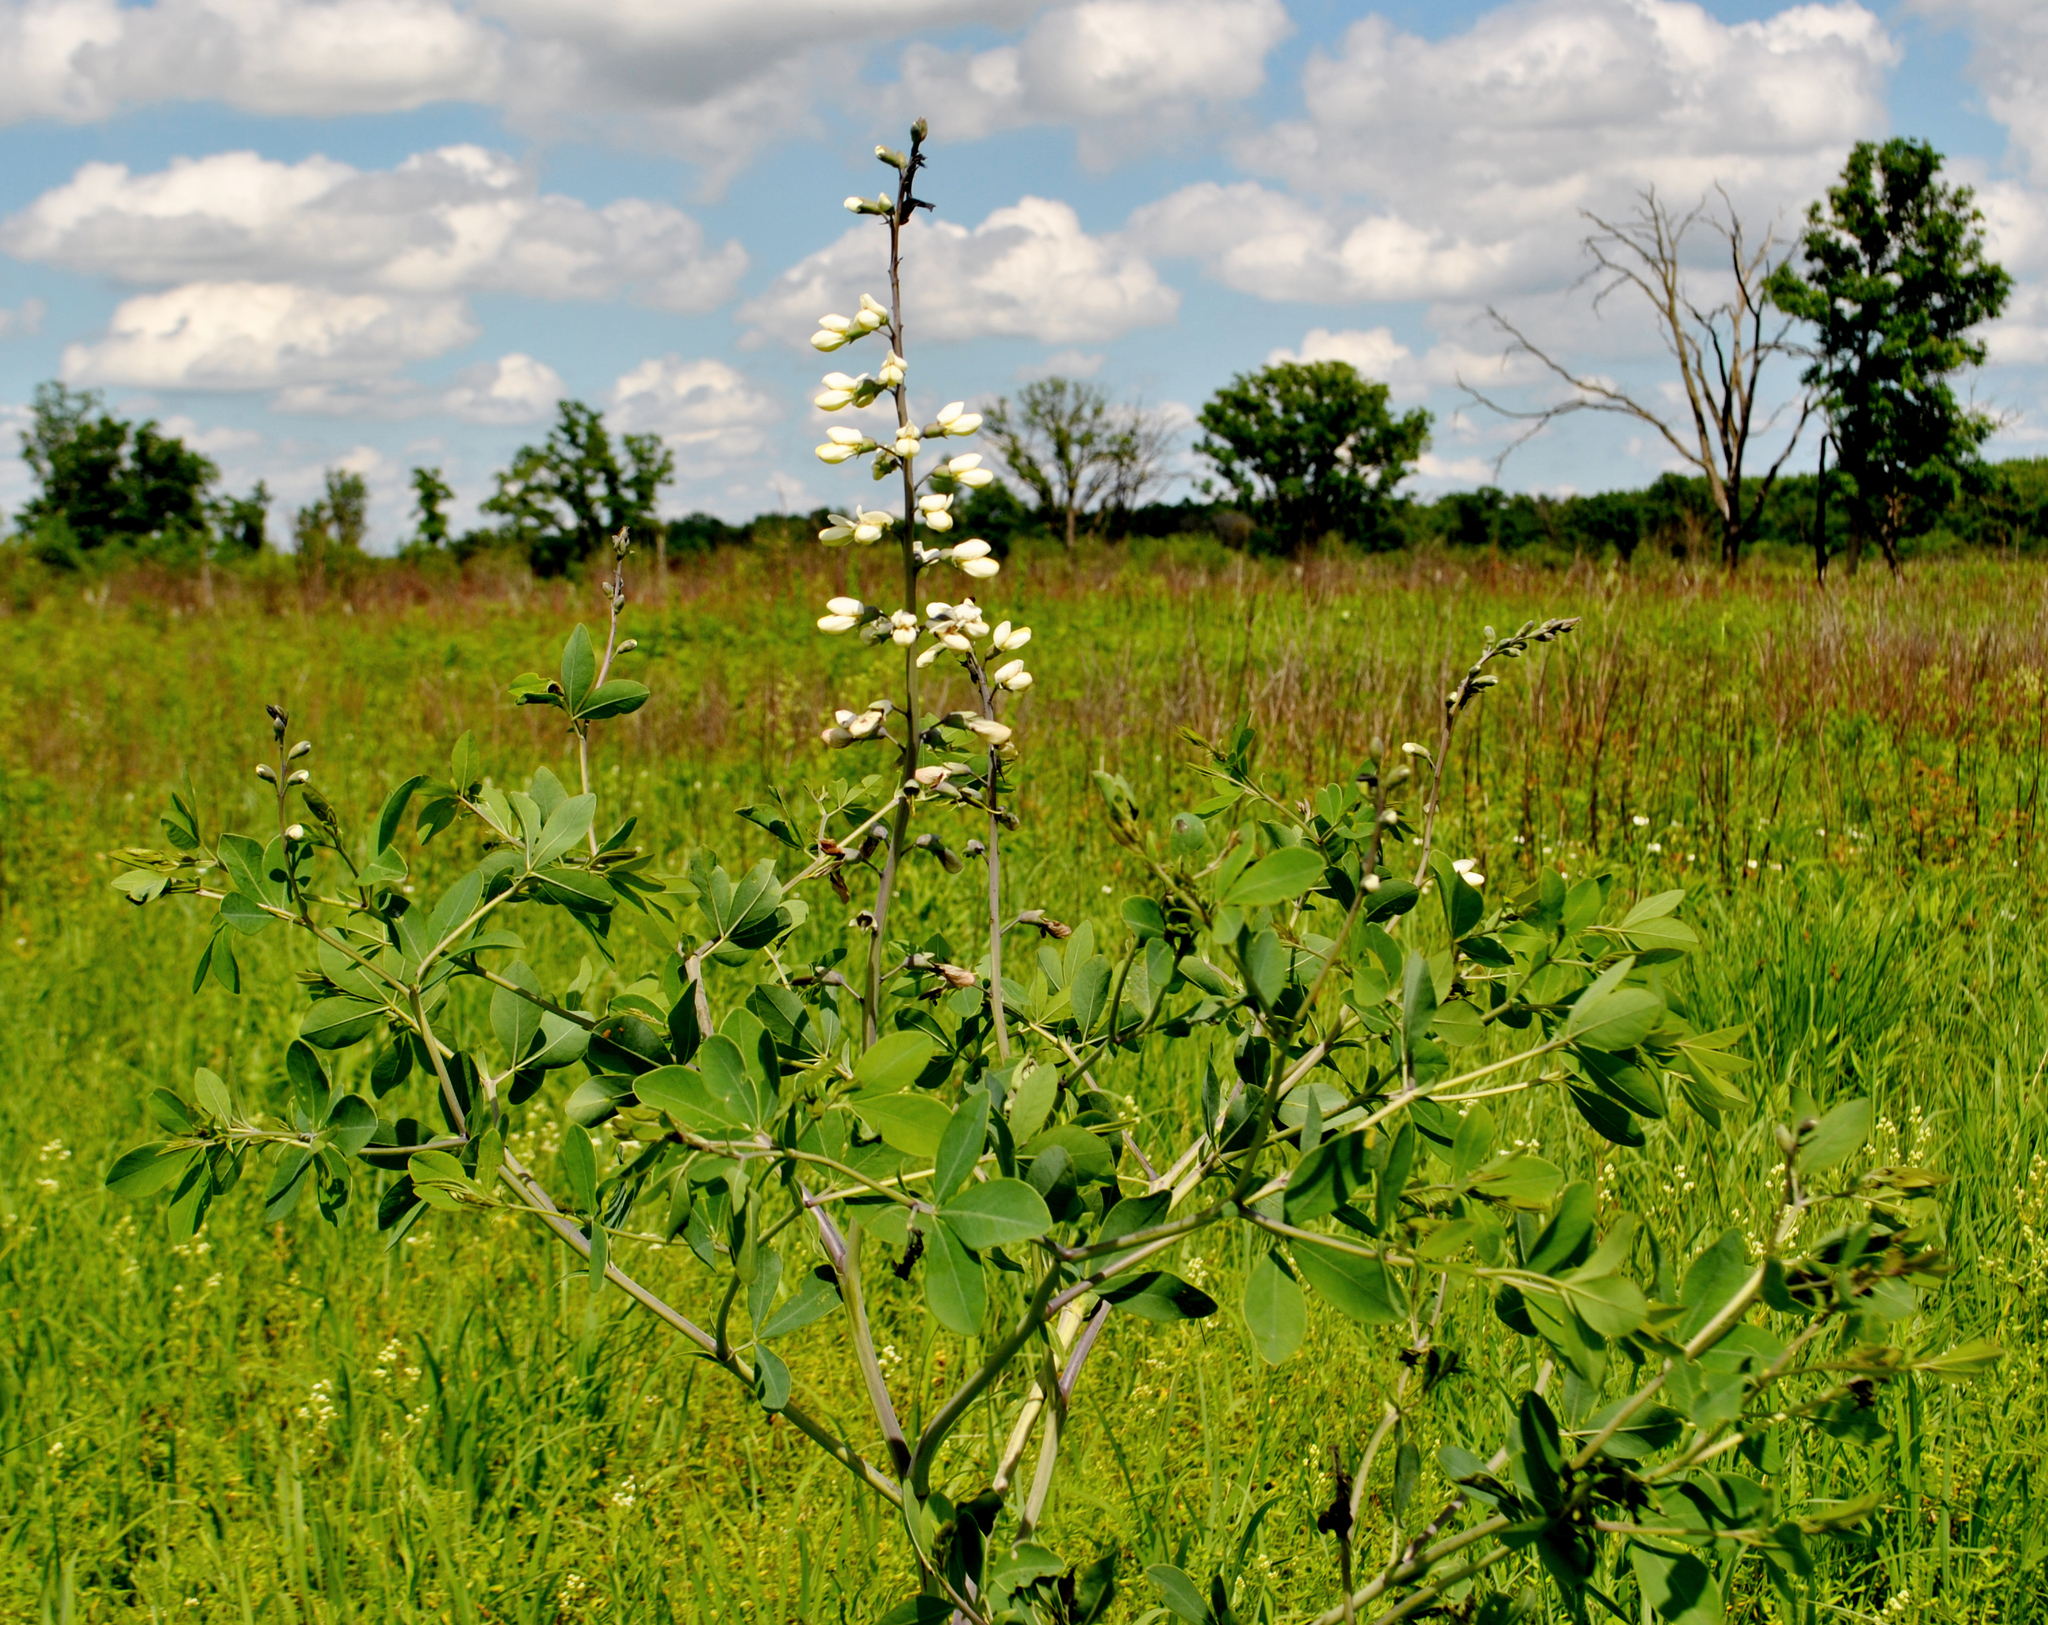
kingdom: Plantae
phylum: Tracheophyta
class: Magnoliopsida
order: Fabales
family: Fabaceae
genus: Baptisia
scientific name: Baptisia alba
